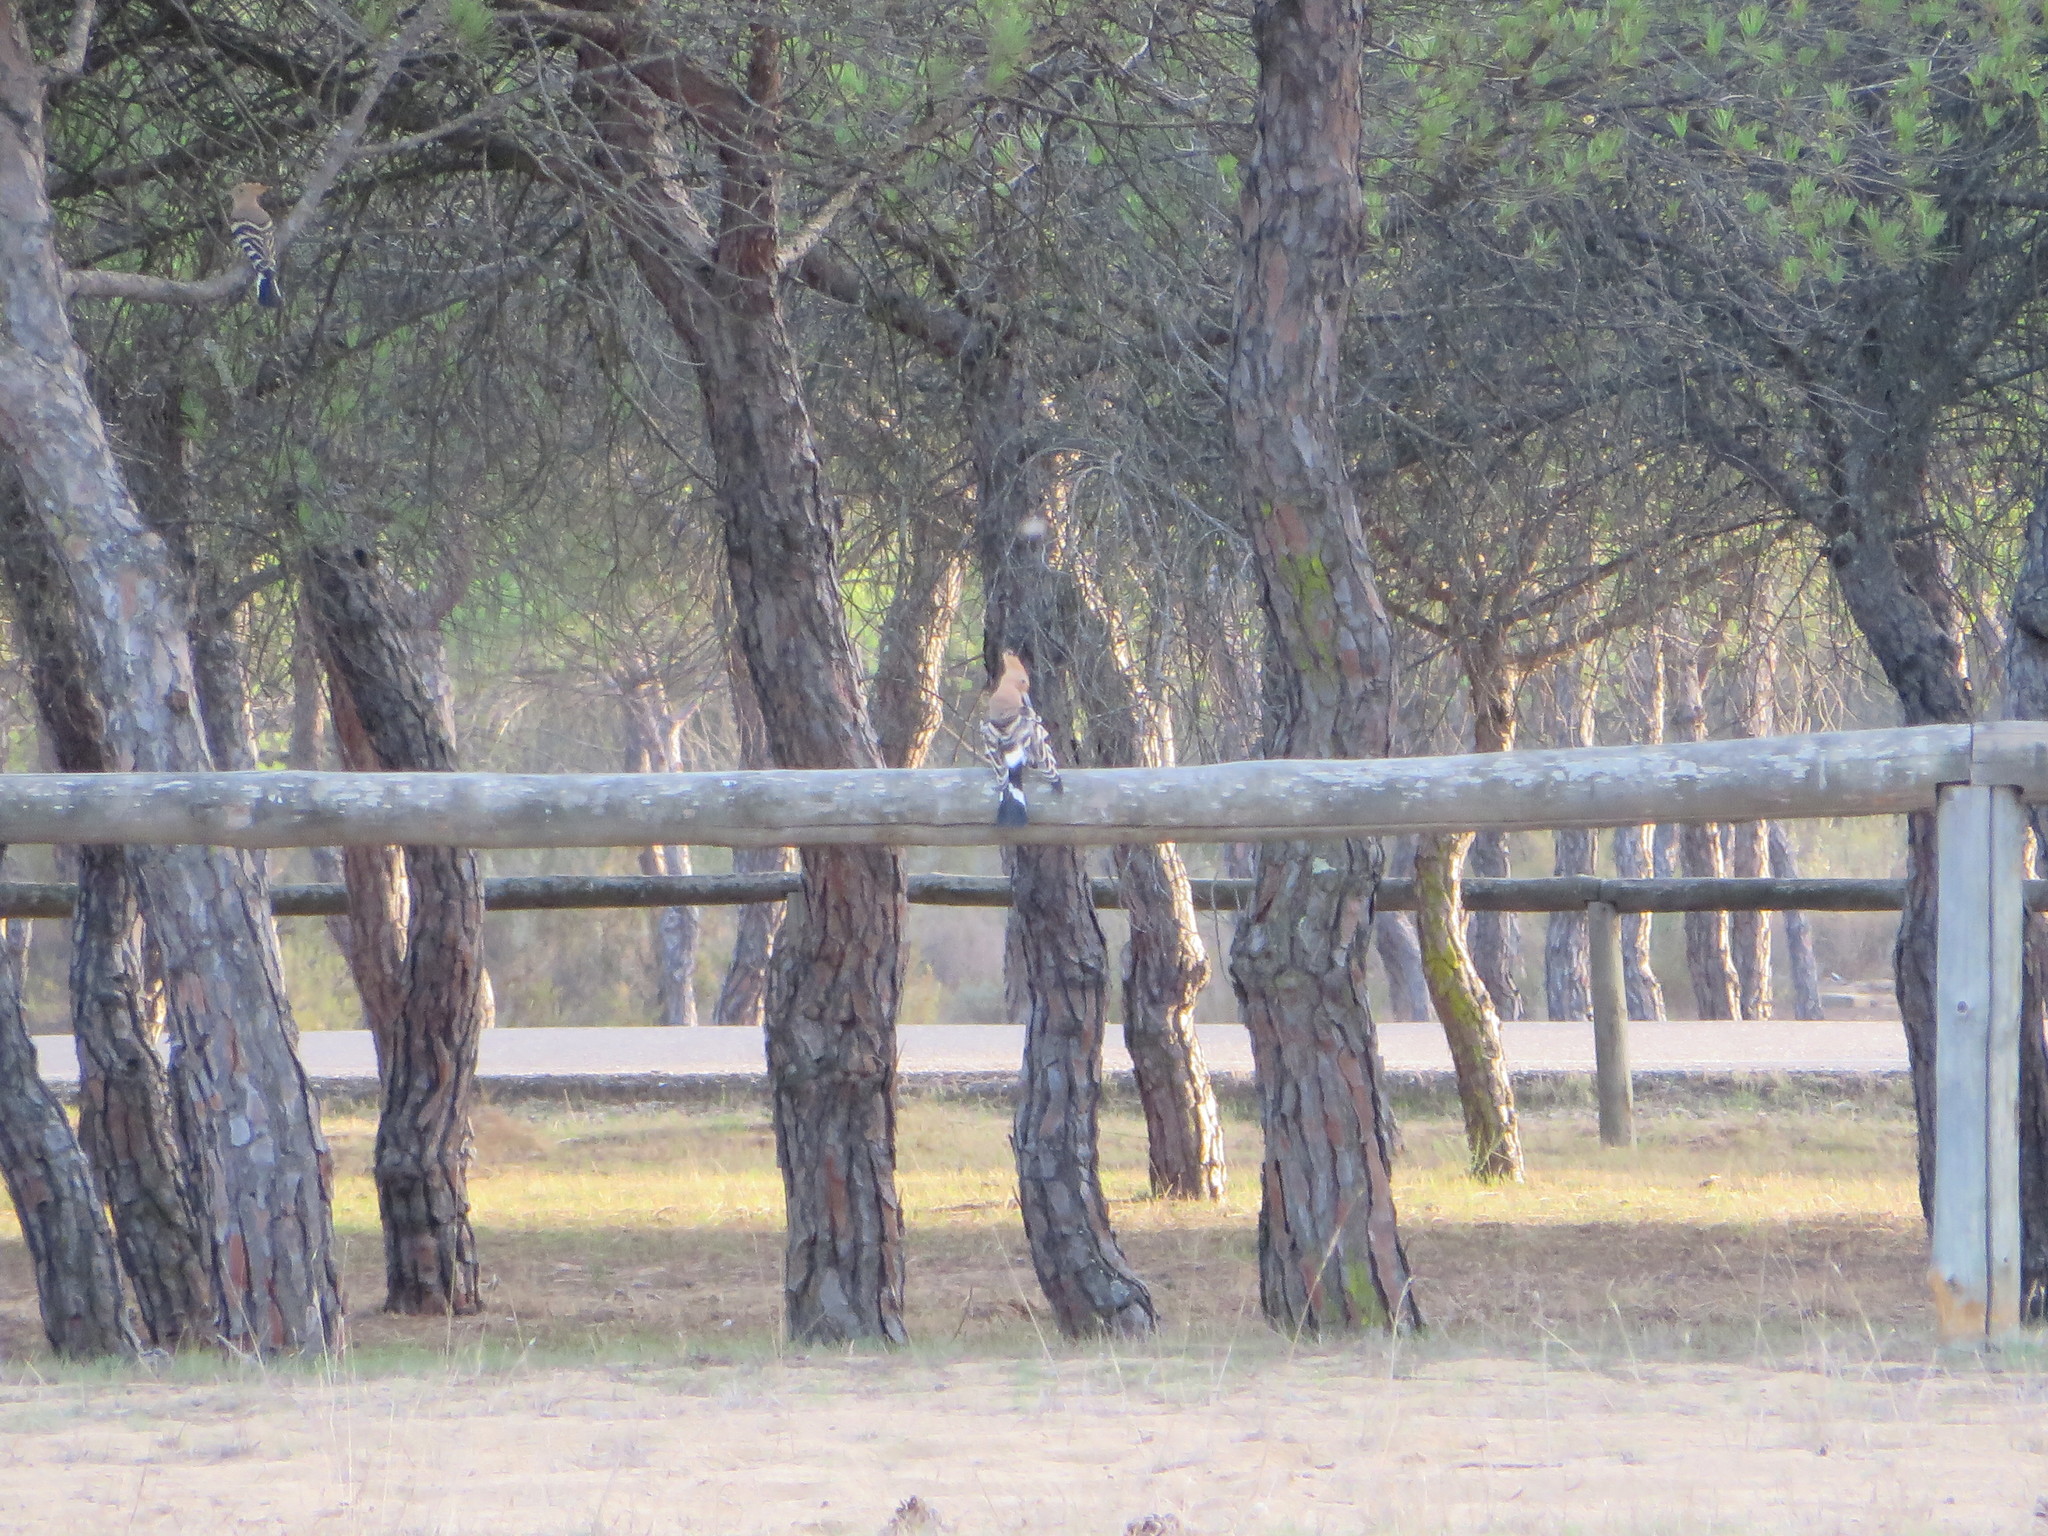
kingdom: Animalia
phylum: Chordata
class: Aves
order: Bucerotiformes
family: Upupidae
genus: Upupa
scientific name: Upupa epops
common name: Eurasian hoopoe
